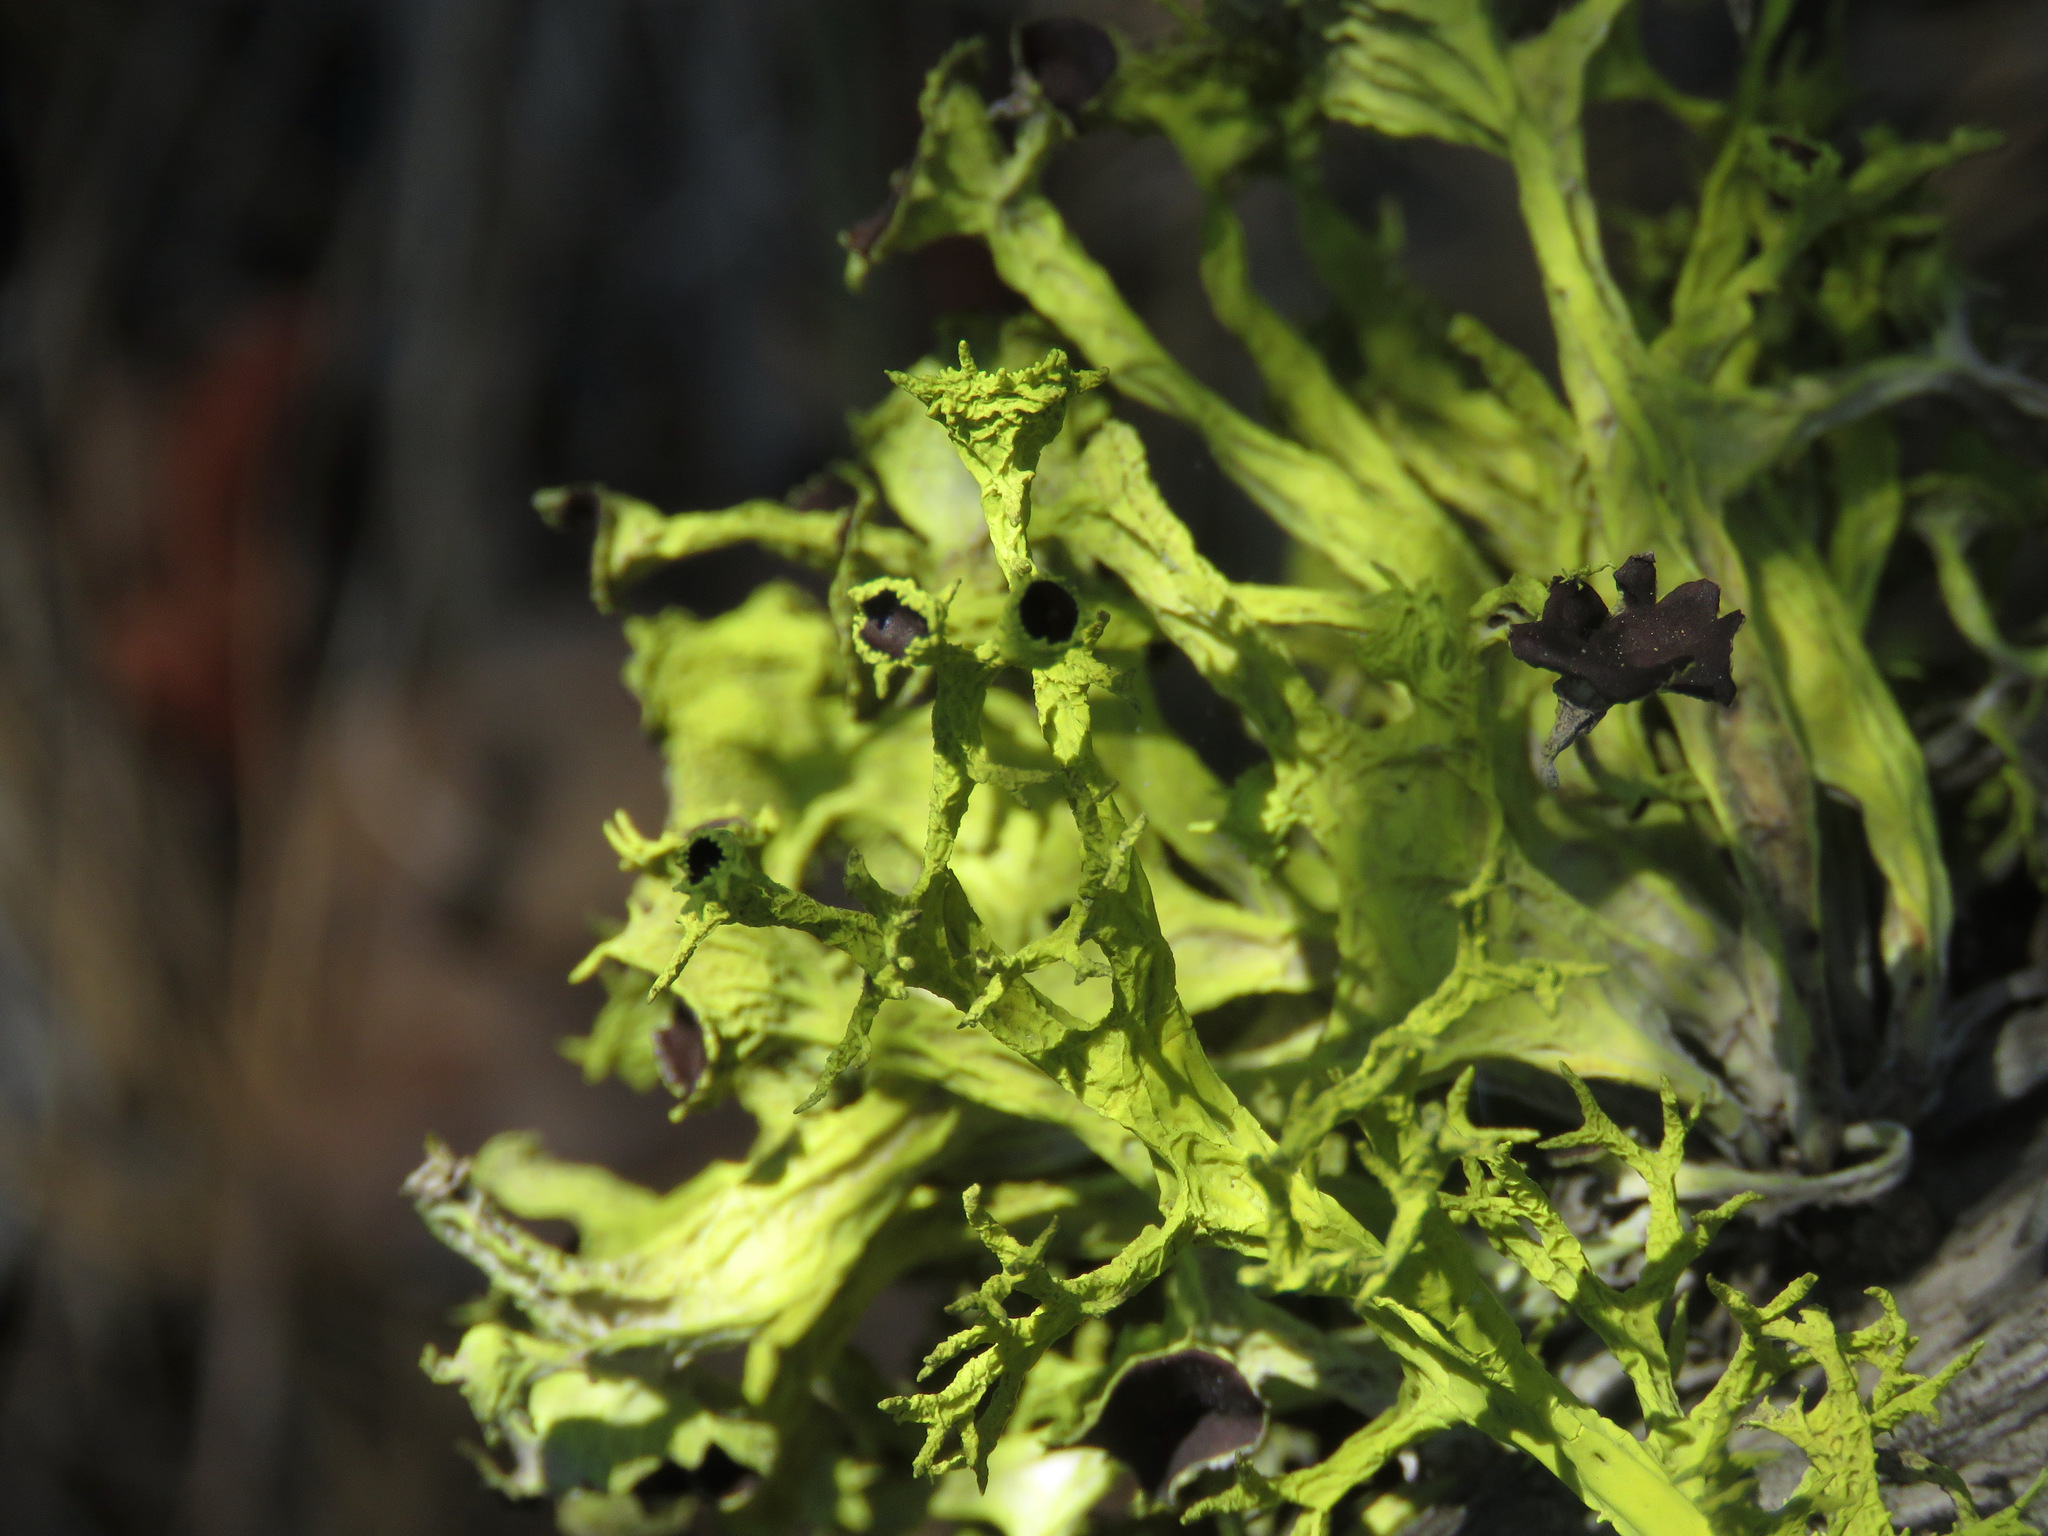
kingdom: Fungi
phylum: Ascomycota
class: Lecanoromycetes
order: Lecanorales
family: Parmeliaceae
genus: Letharia
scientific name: Letharia columbiana
